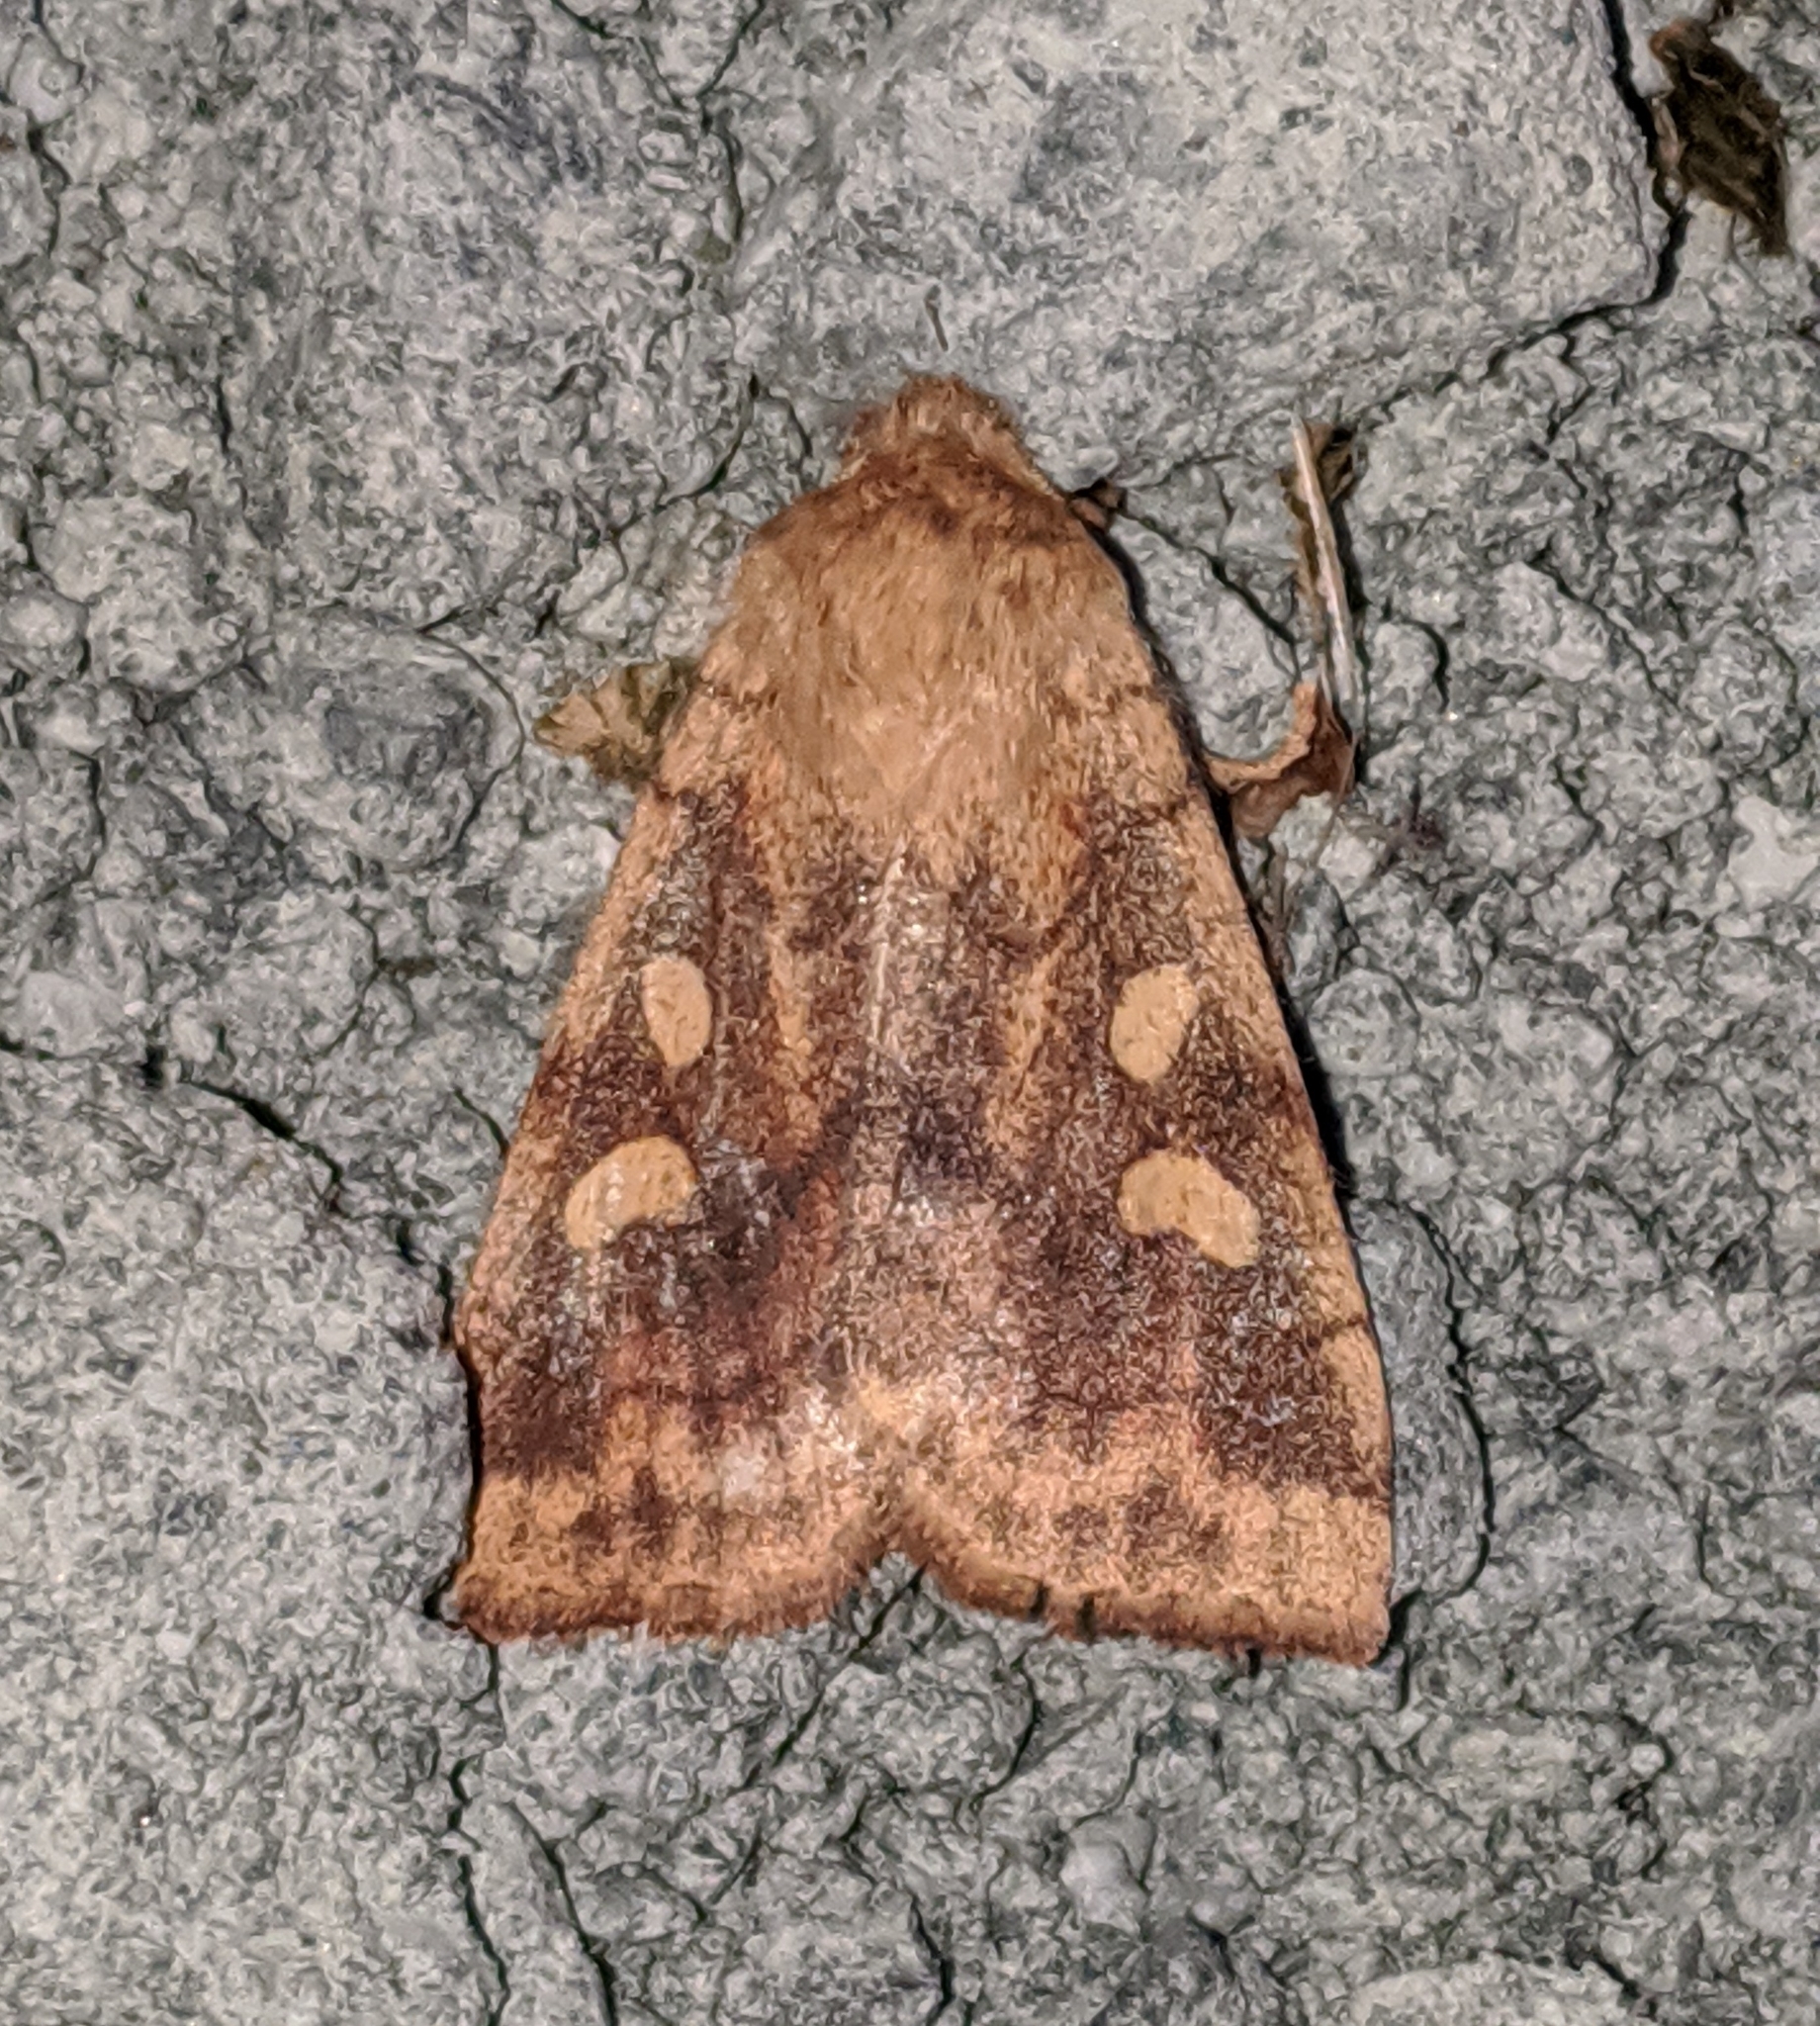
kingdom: Animalia
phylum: Arthropoda
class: Insecta
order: Lepidoptera
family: Noctuidae
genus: Enargia
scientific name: Enargia decolor
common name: Aspen twoleaf tier moth
